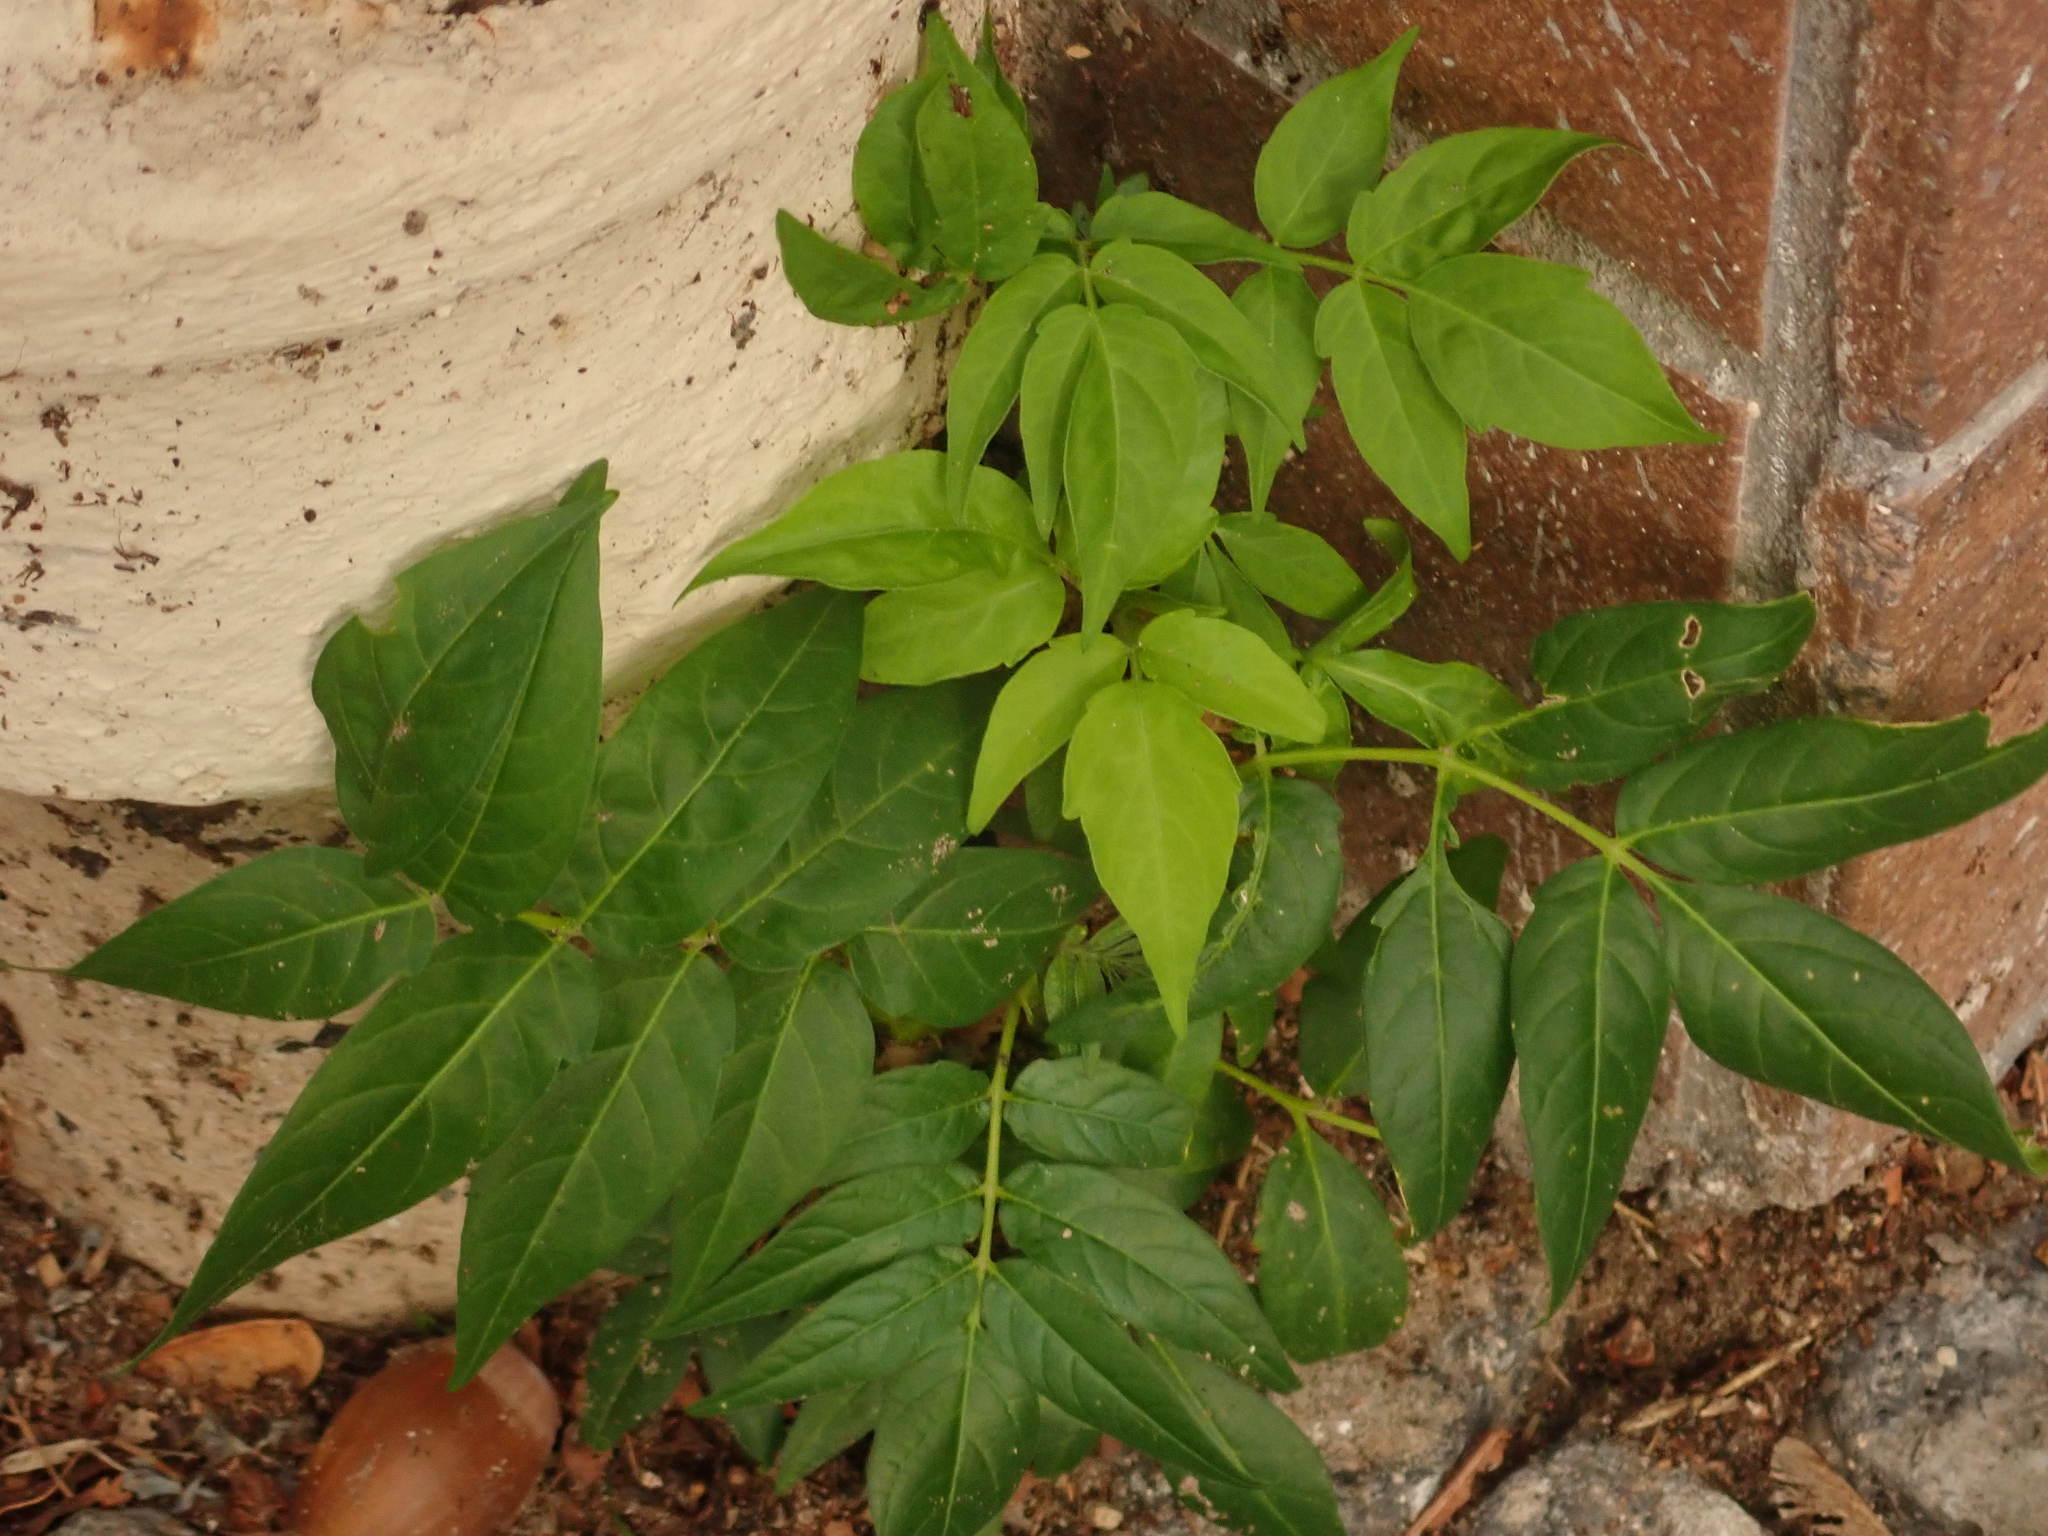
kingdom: Plantae
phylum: Tracheophyta
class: Magnoliopsida
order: Sapindales
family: Simaroubaceae
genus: Ailanthus
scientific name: Ailanthus altissima
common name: Tree-of-heaven
